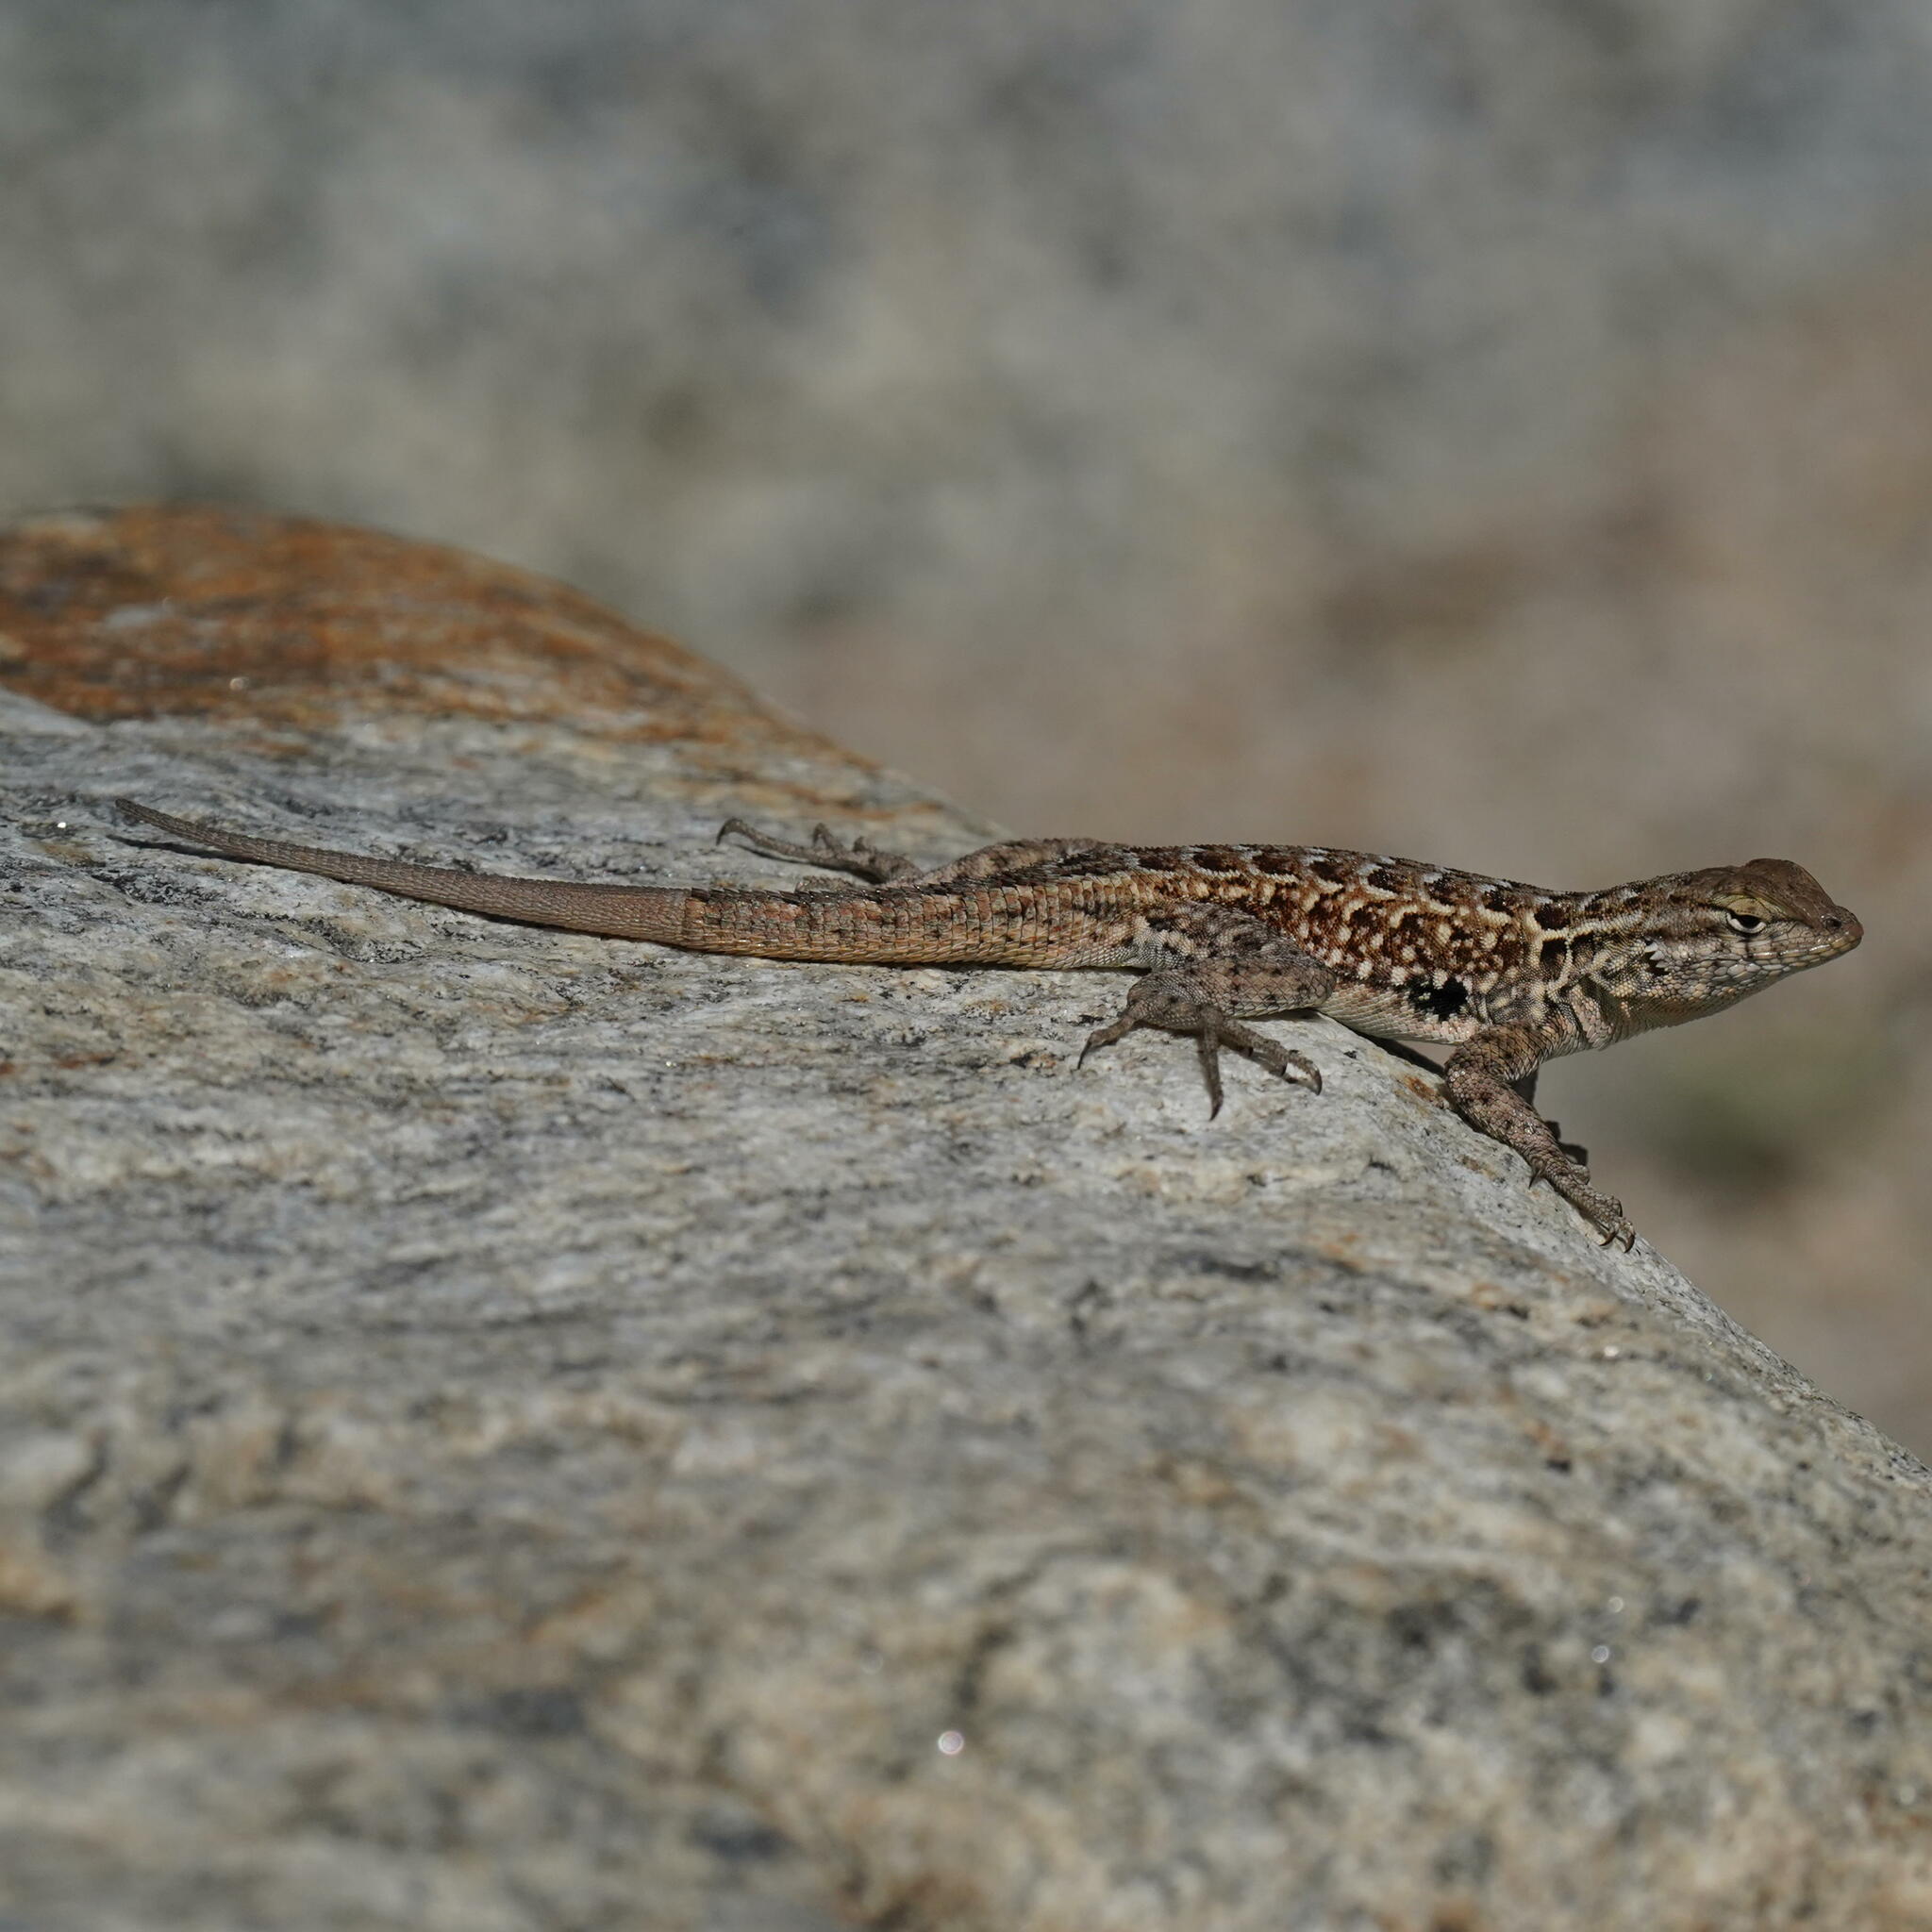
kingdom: Animalia
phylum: Chordata
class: Squamata
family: Phrynosomatidae
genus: Uta
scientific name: Uta stansburiana
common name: Side-blotched lizard
